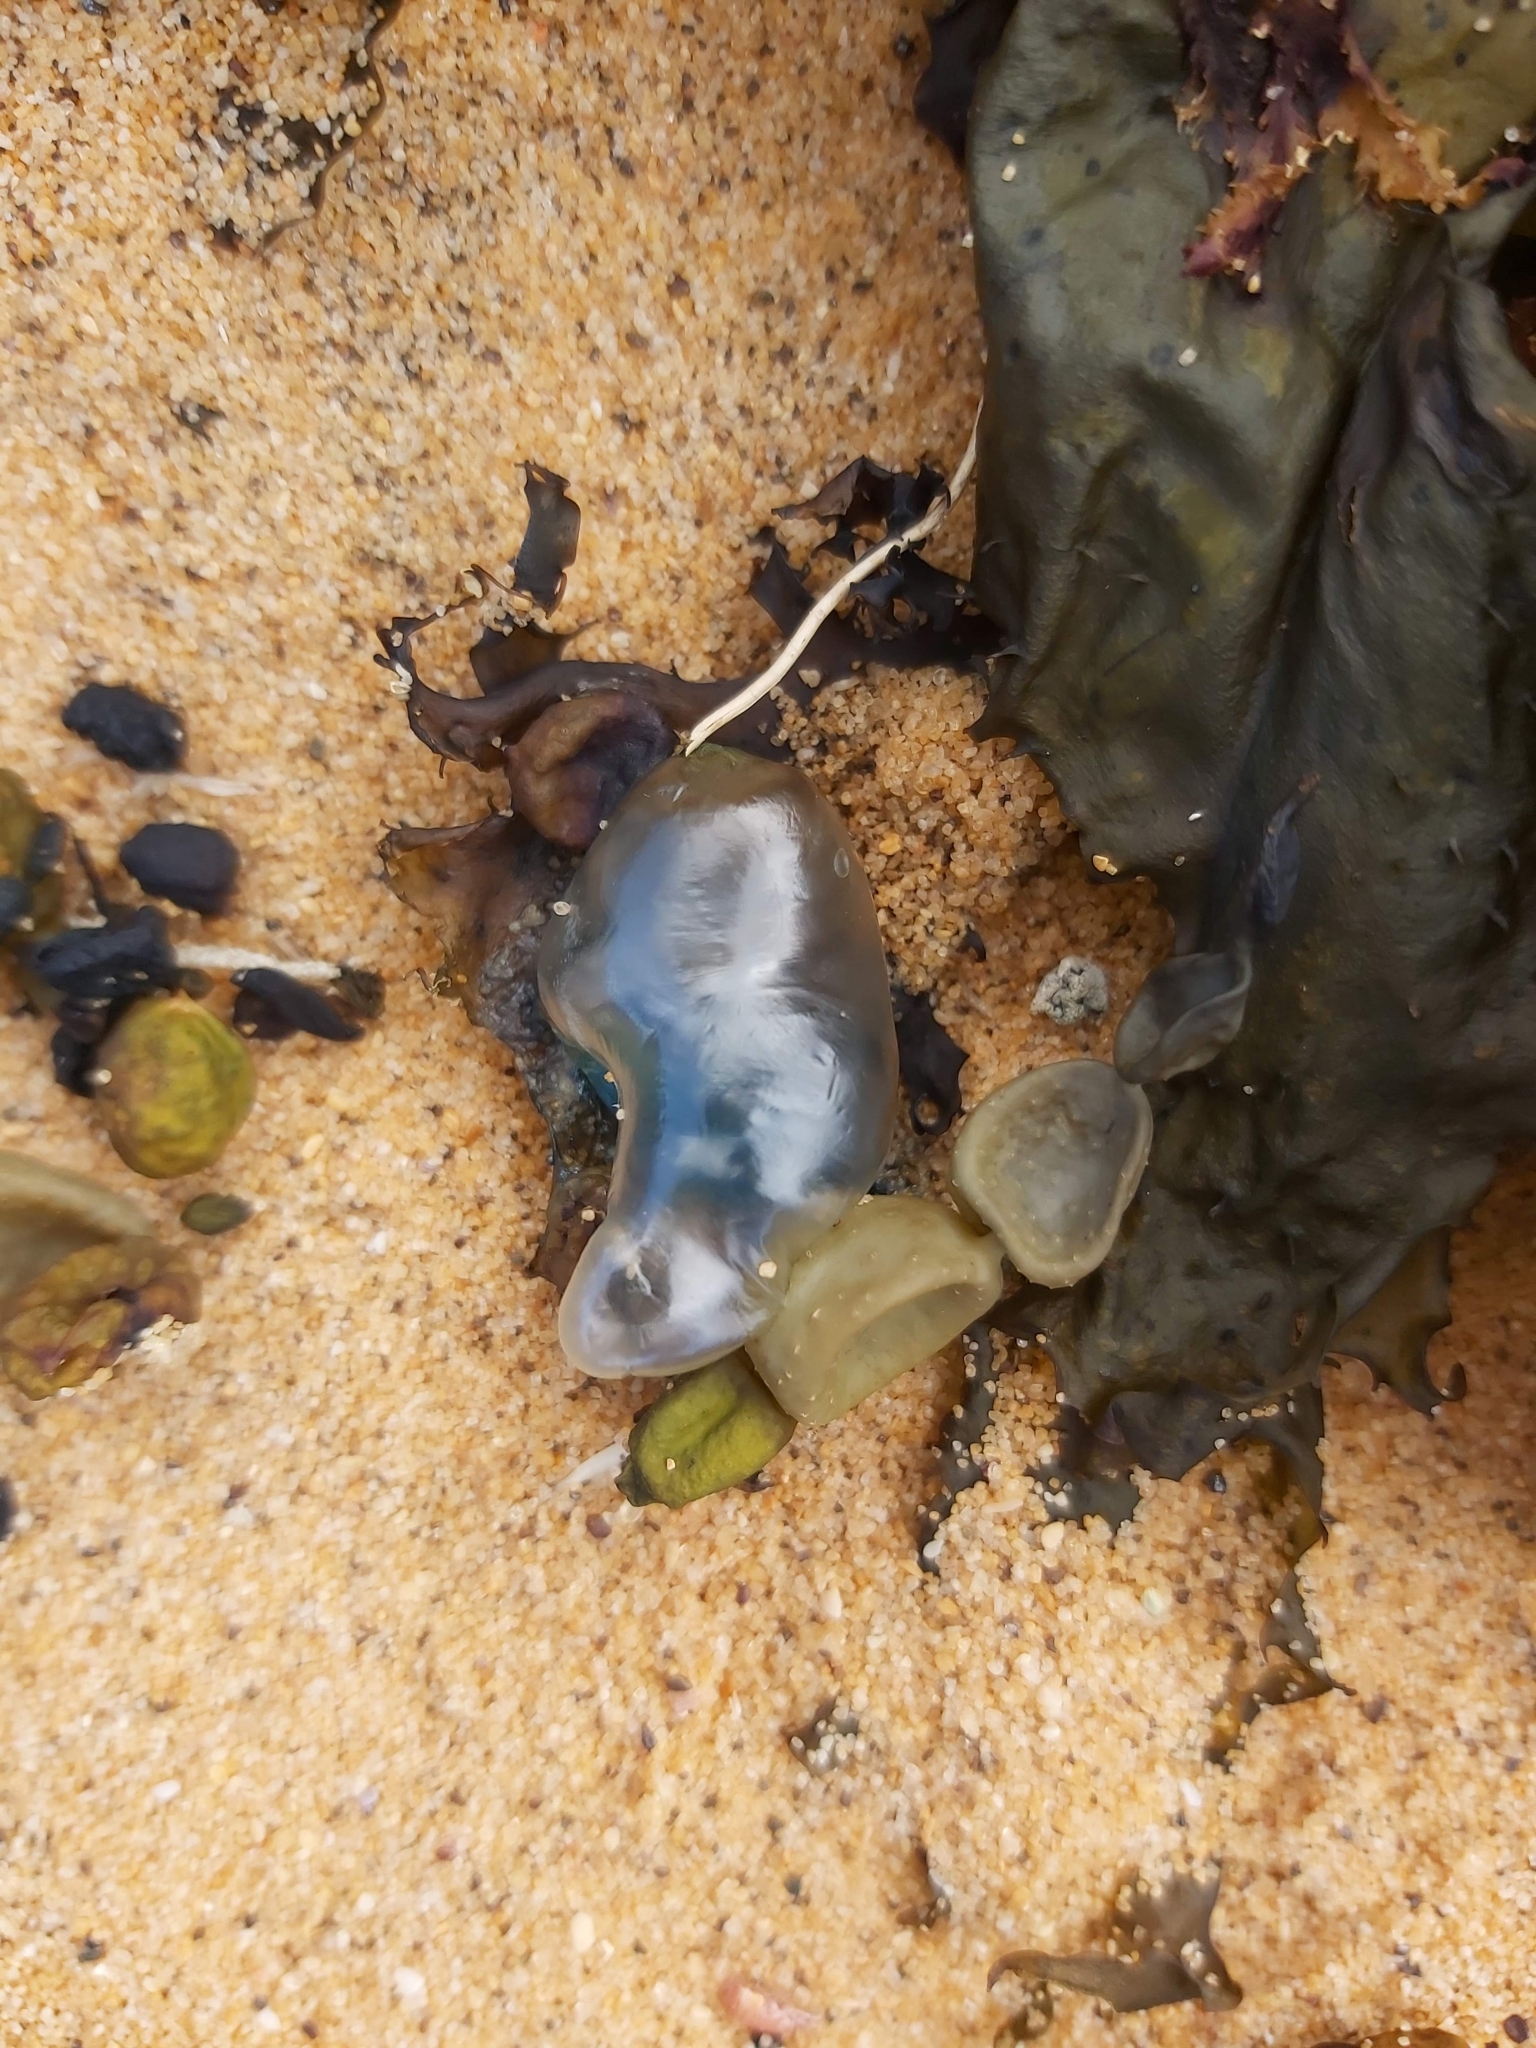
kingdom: Animalia
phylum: Cnidaria
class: Hydrozoa
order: Siphonophorae
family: Physaliidae
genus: Physalia
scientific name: Physalia physalis
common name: Portuguese man-of-war
